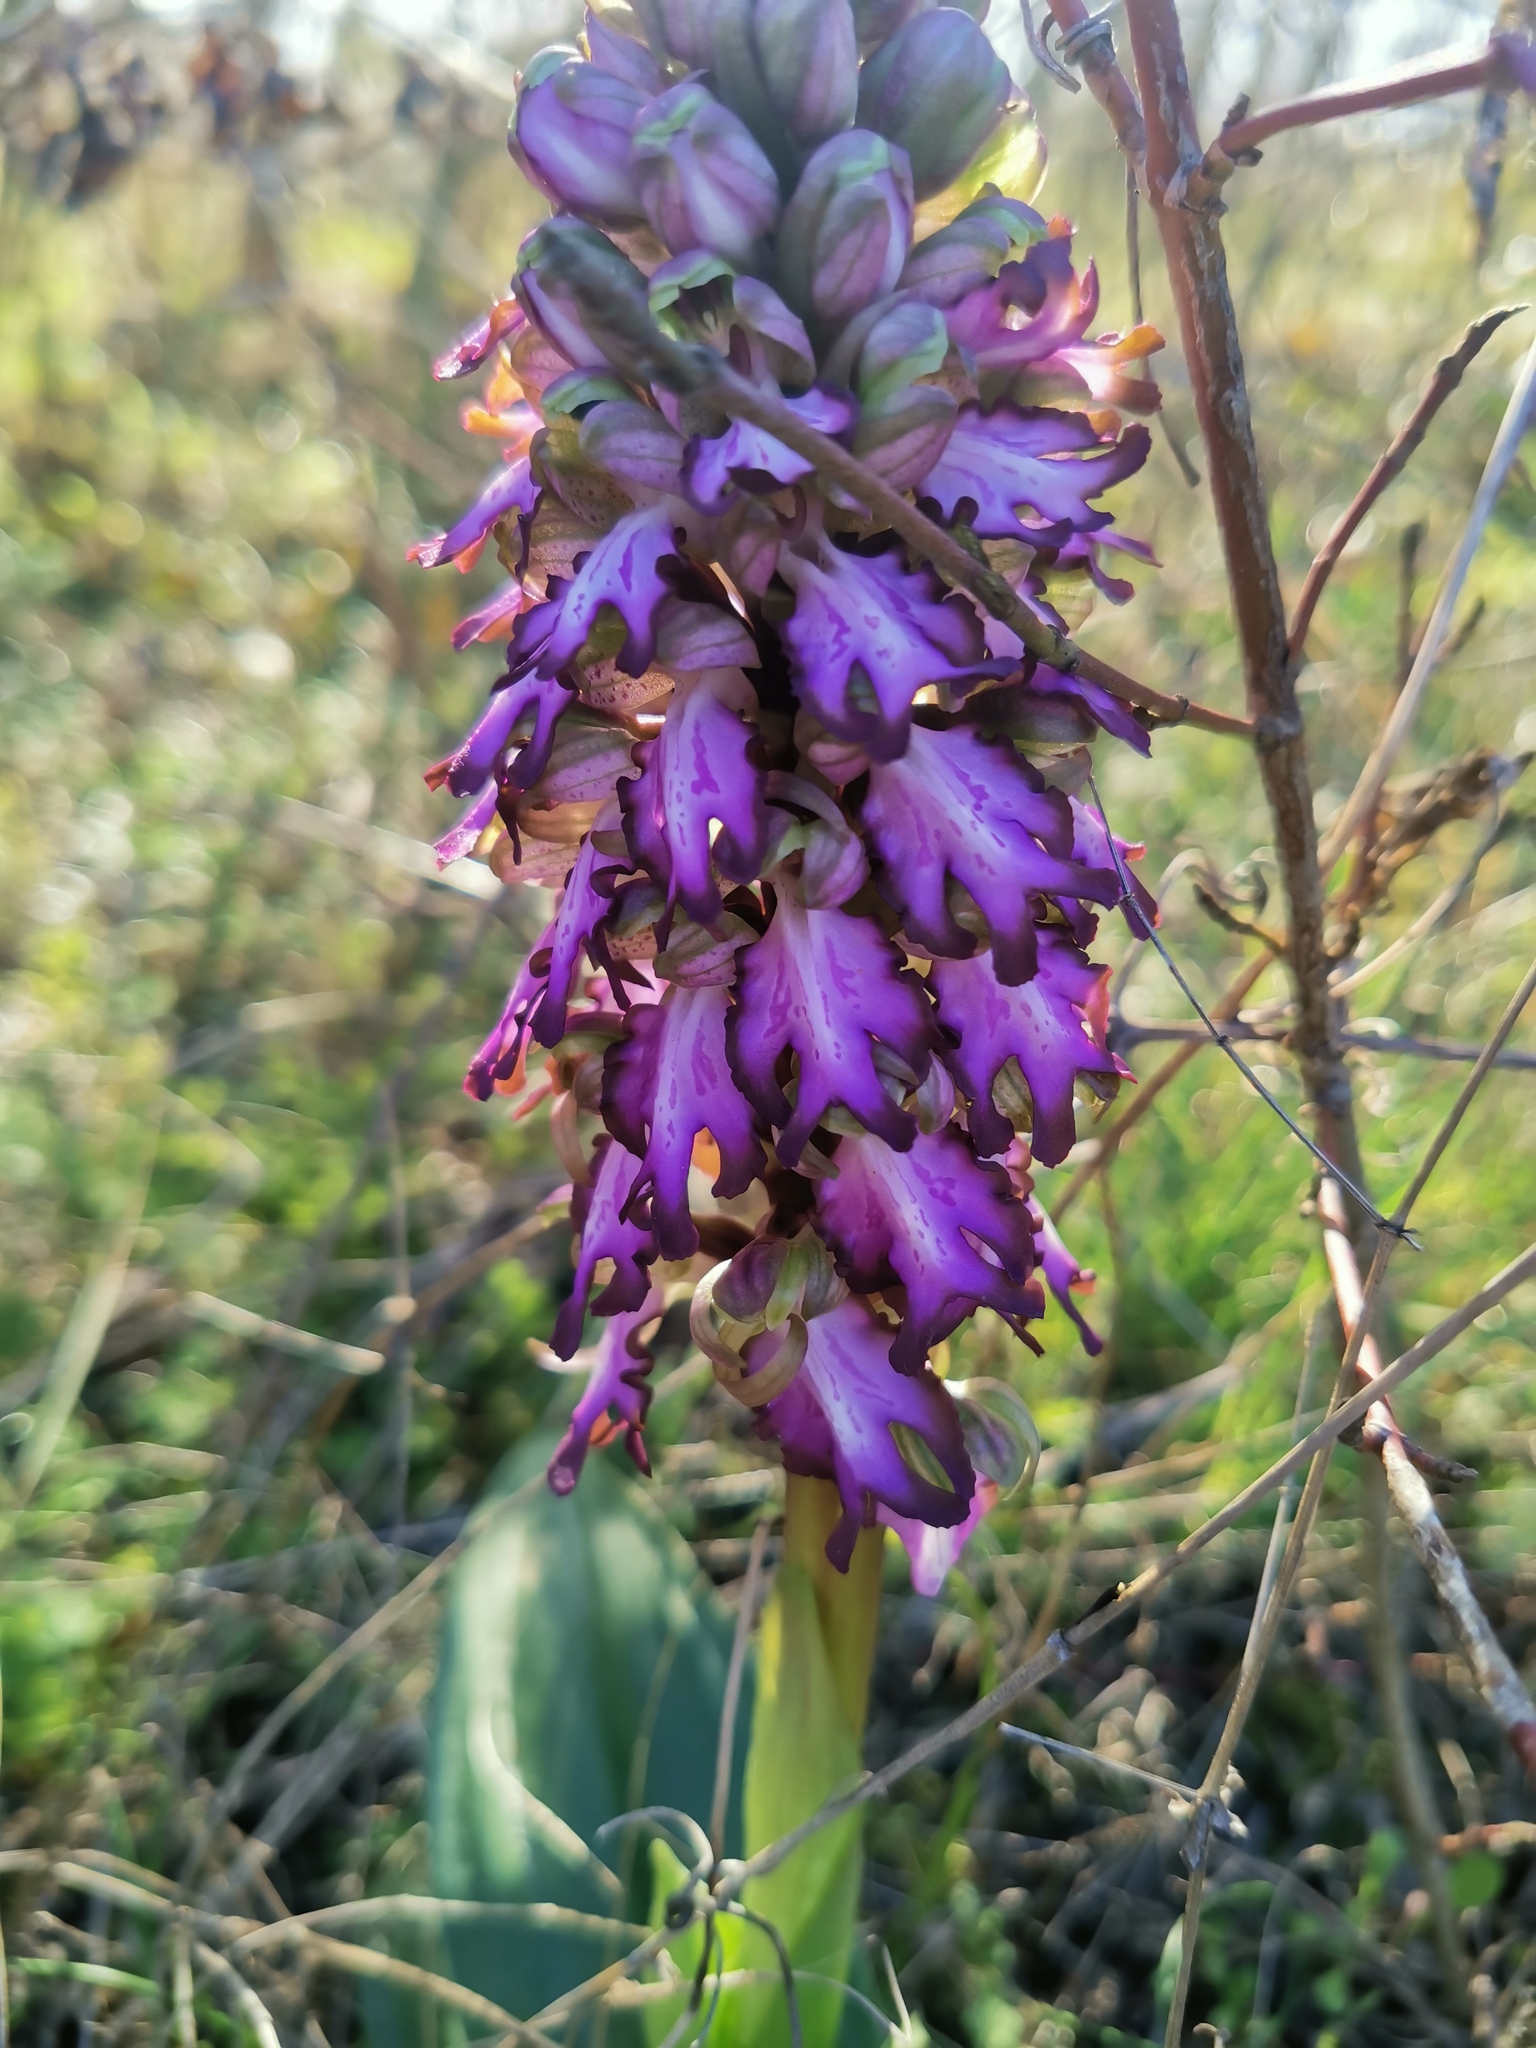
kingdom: Plantae
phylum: Tracheophyta
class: Liliopsida
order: Asparagales
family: Orchidaceae
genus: Himantoglossum
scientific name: Himantoglossum robertianum
